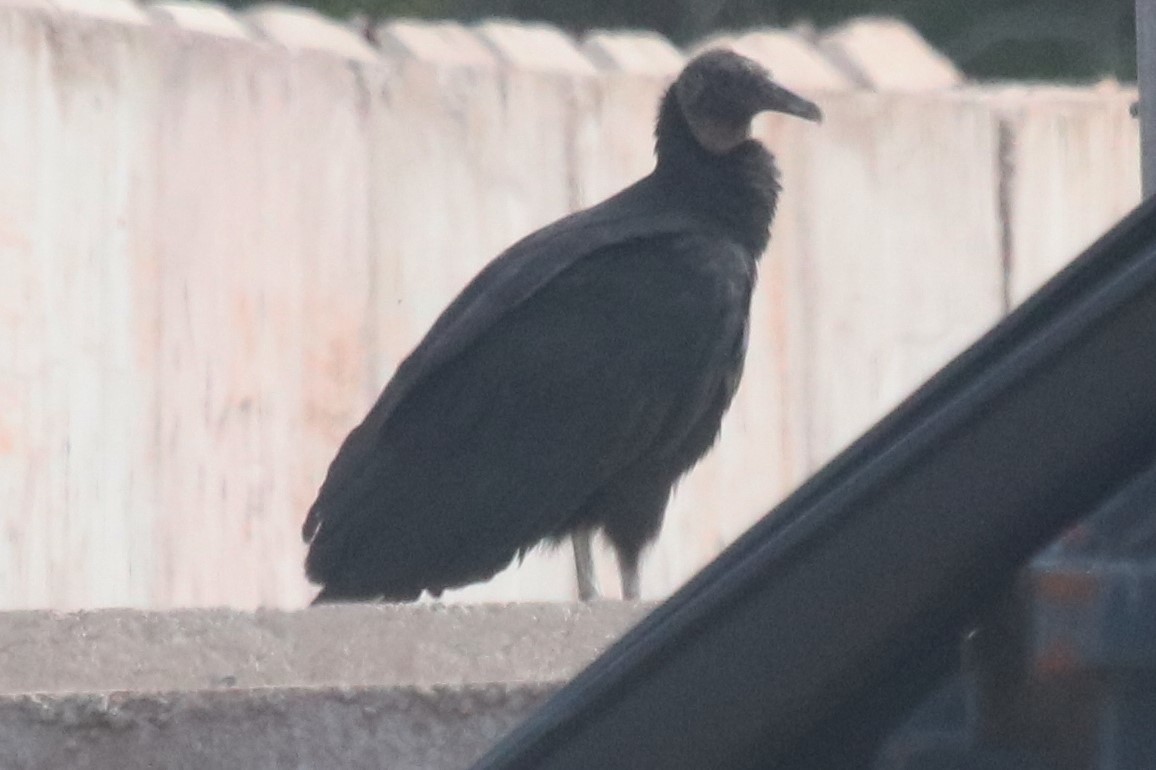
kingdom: Animalia
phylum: Chordata
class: Aves
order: Accipitriformes
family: Cathartidae
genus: Coragyps
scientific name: Coragyps atratus
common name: Black vulture
